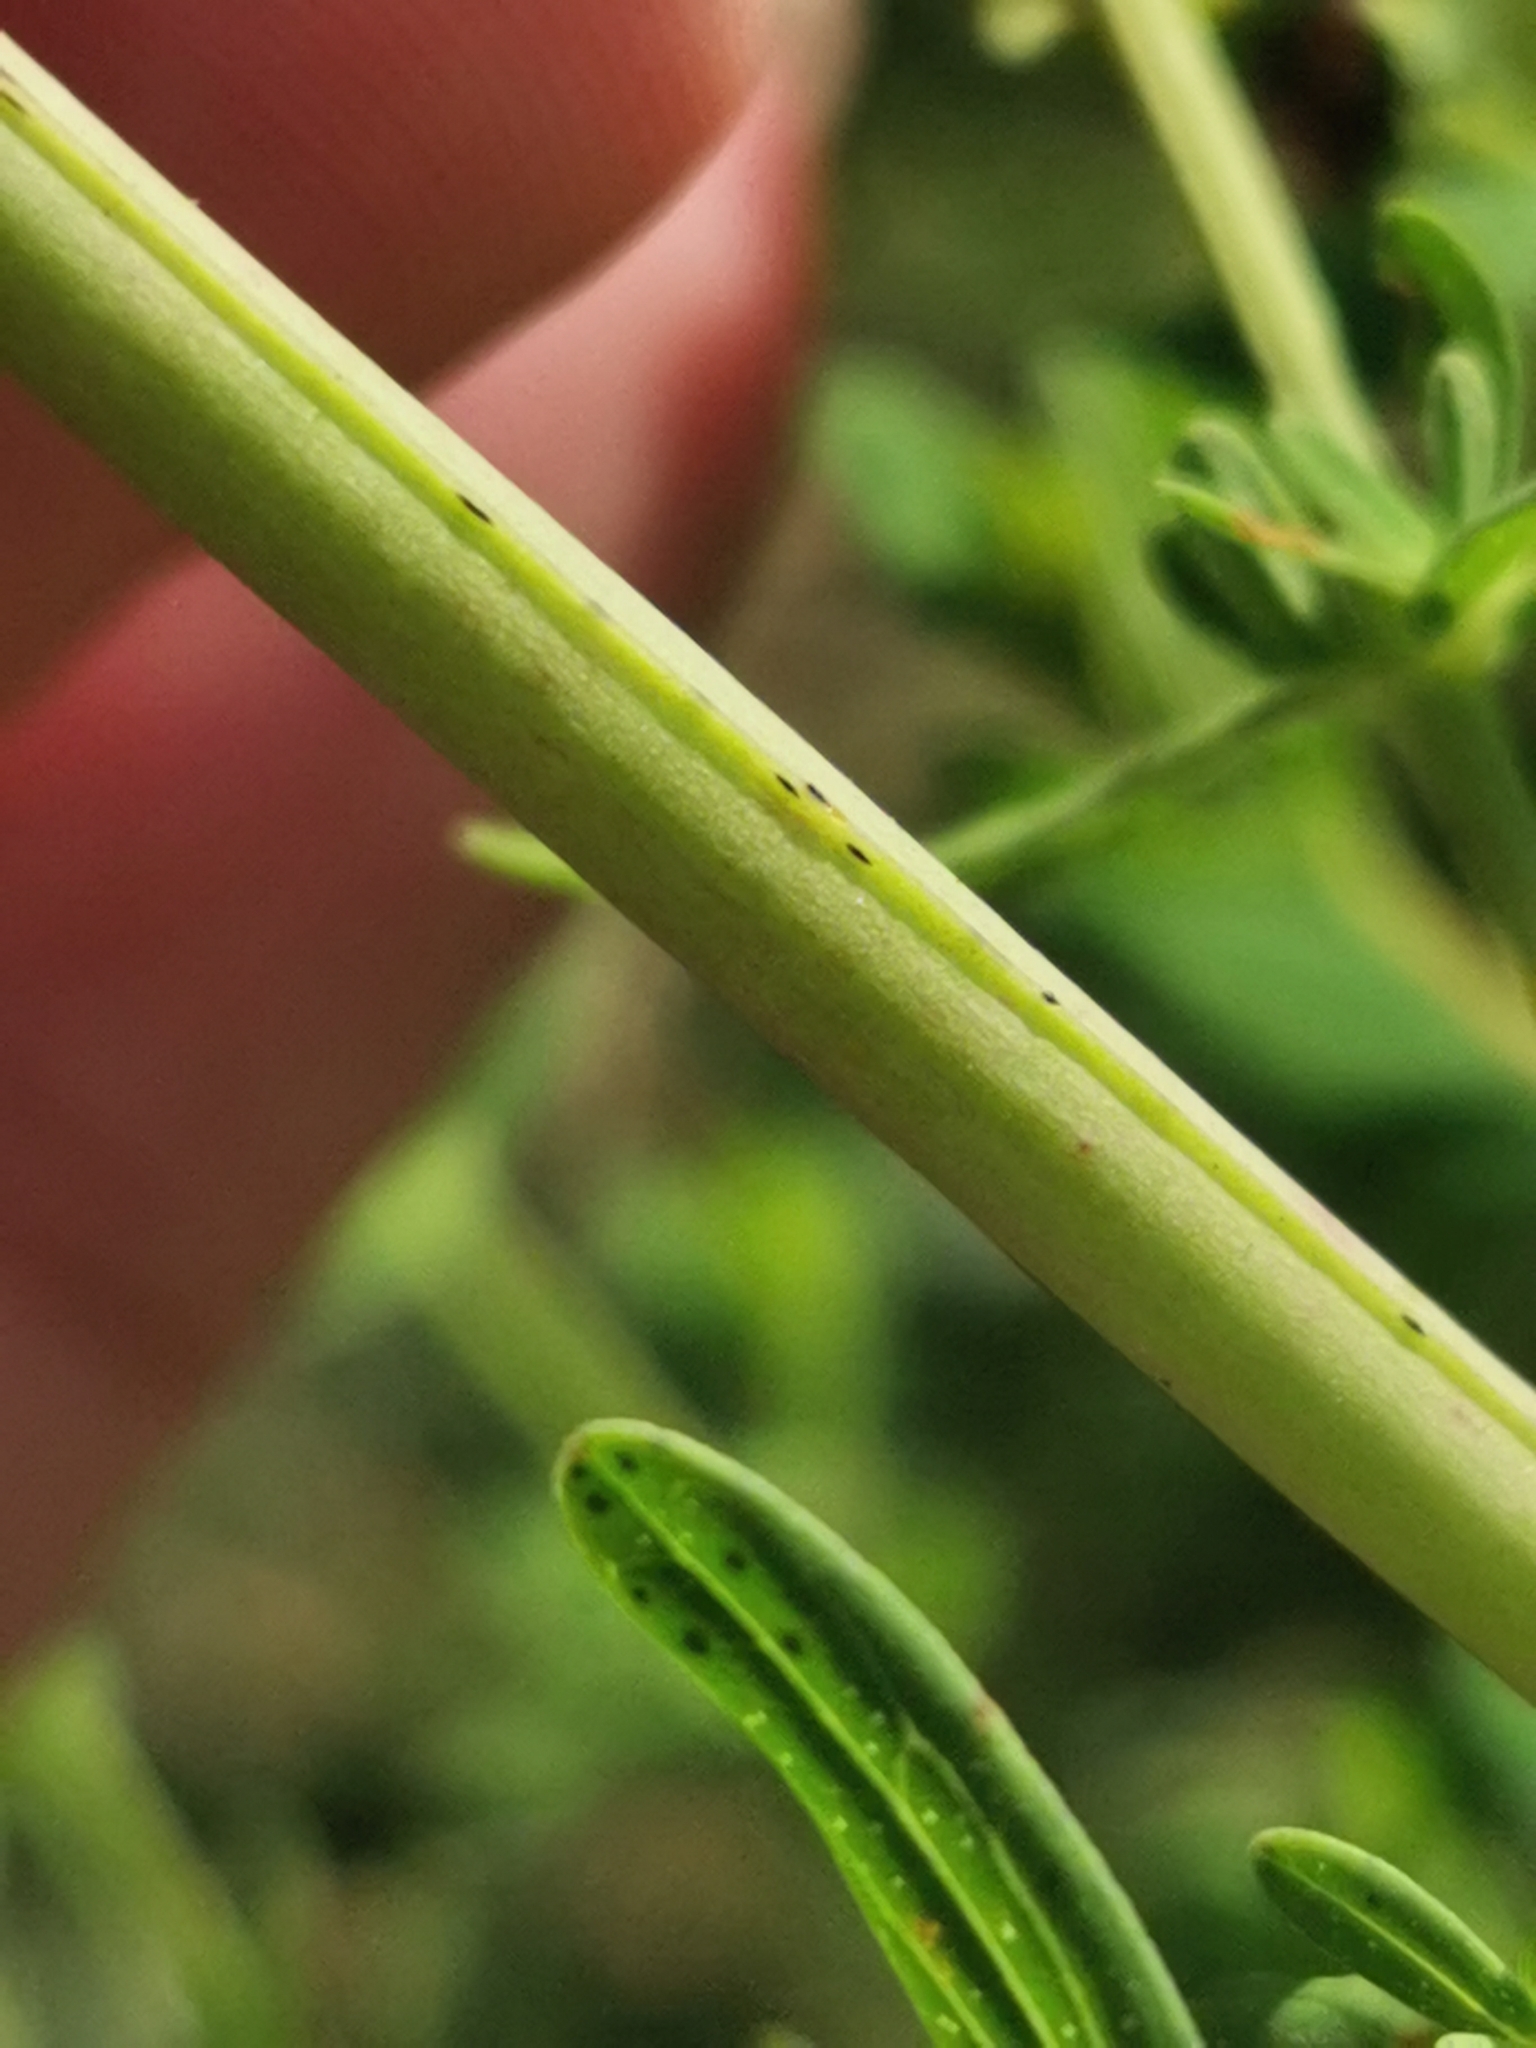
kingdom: Plantae
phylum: Tracheophyta
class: Magnoliopsida
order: Malpighiales
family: Hypericaceae
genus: Hypericum
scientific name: Hypericum perforatum
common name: Common st. johnswort
